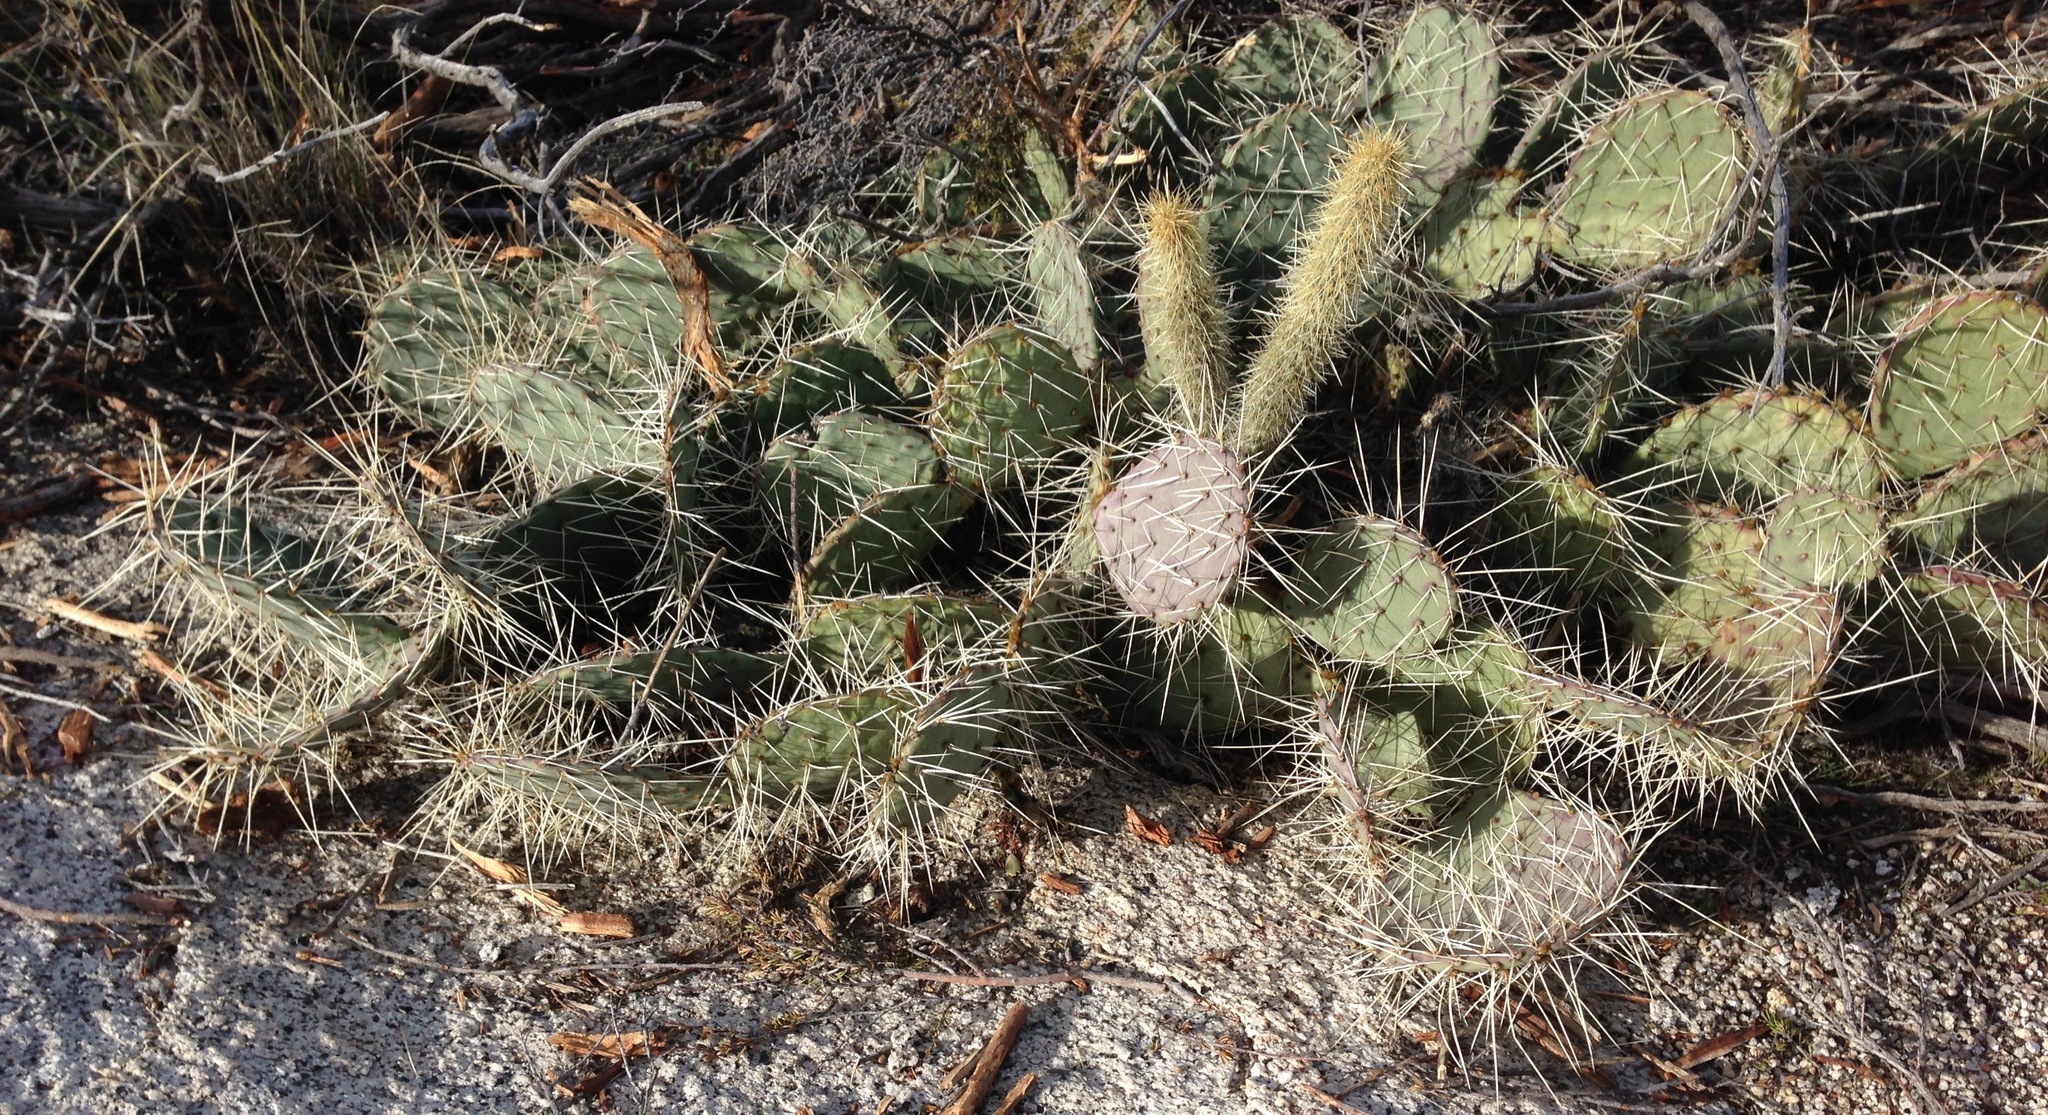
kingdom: Plantae
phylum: Tracheophyta
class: Magnoliopsida
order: Caryophyllales
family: Cactaceae
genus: Opuntia
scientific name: Opuntia phaeacantha
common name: New mexico prickly-pear
